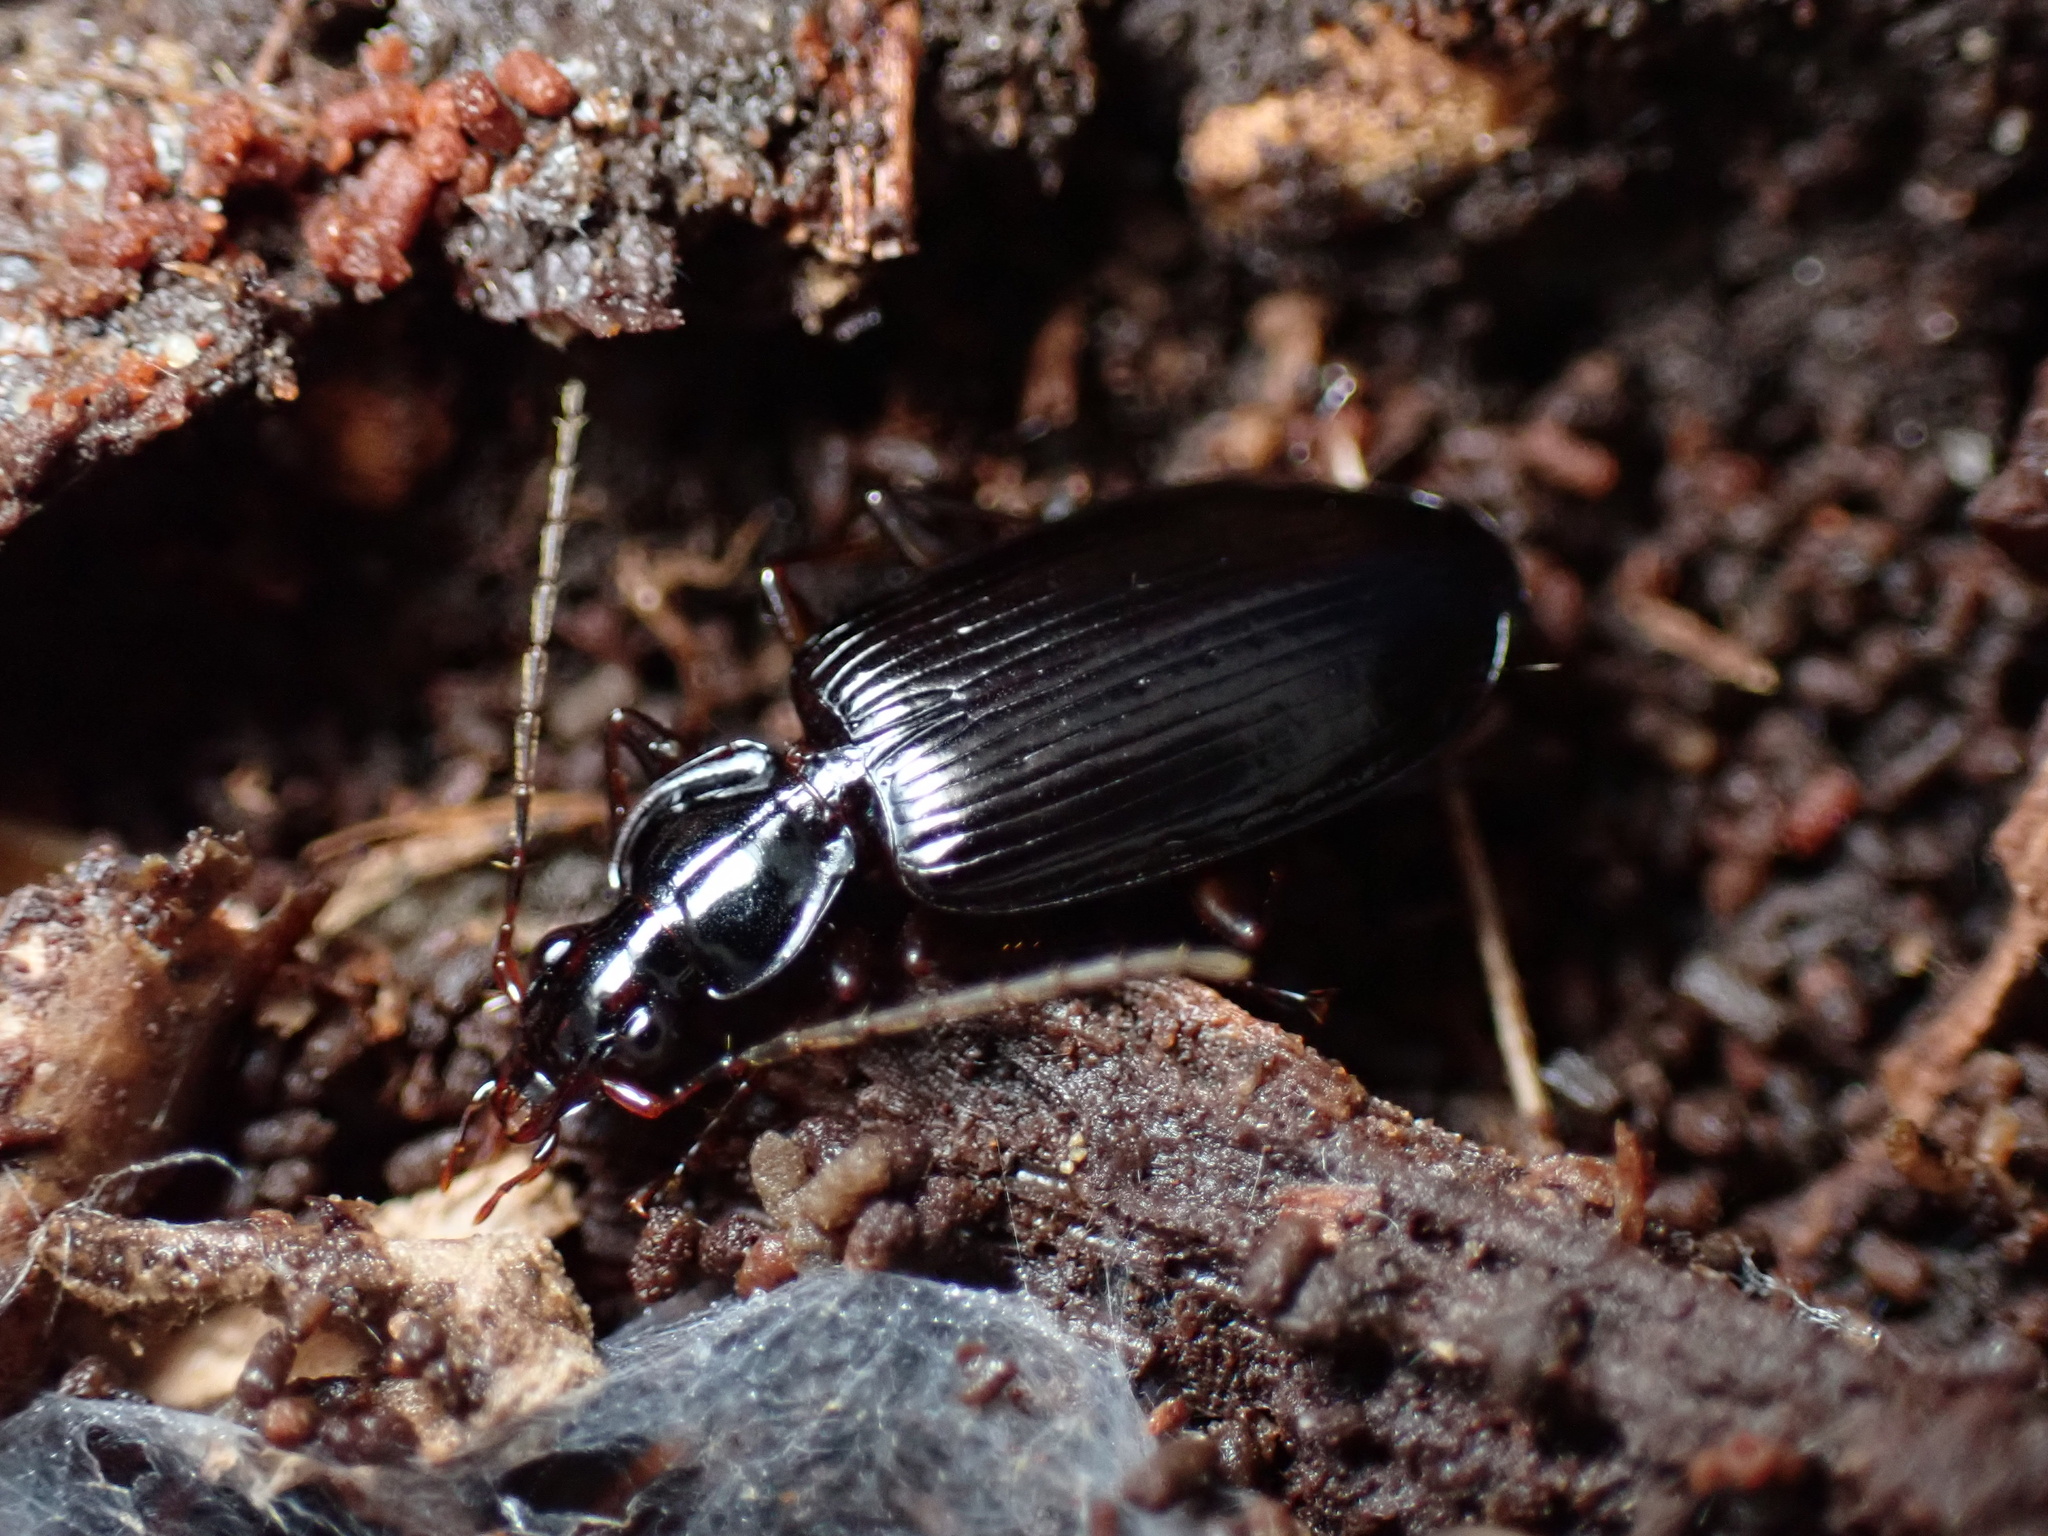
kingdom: Animalia
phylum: Arthropoda
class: Insecta
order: Coleoptera
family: Carabidae
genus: Platynus
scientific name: Platynus cincticollis
